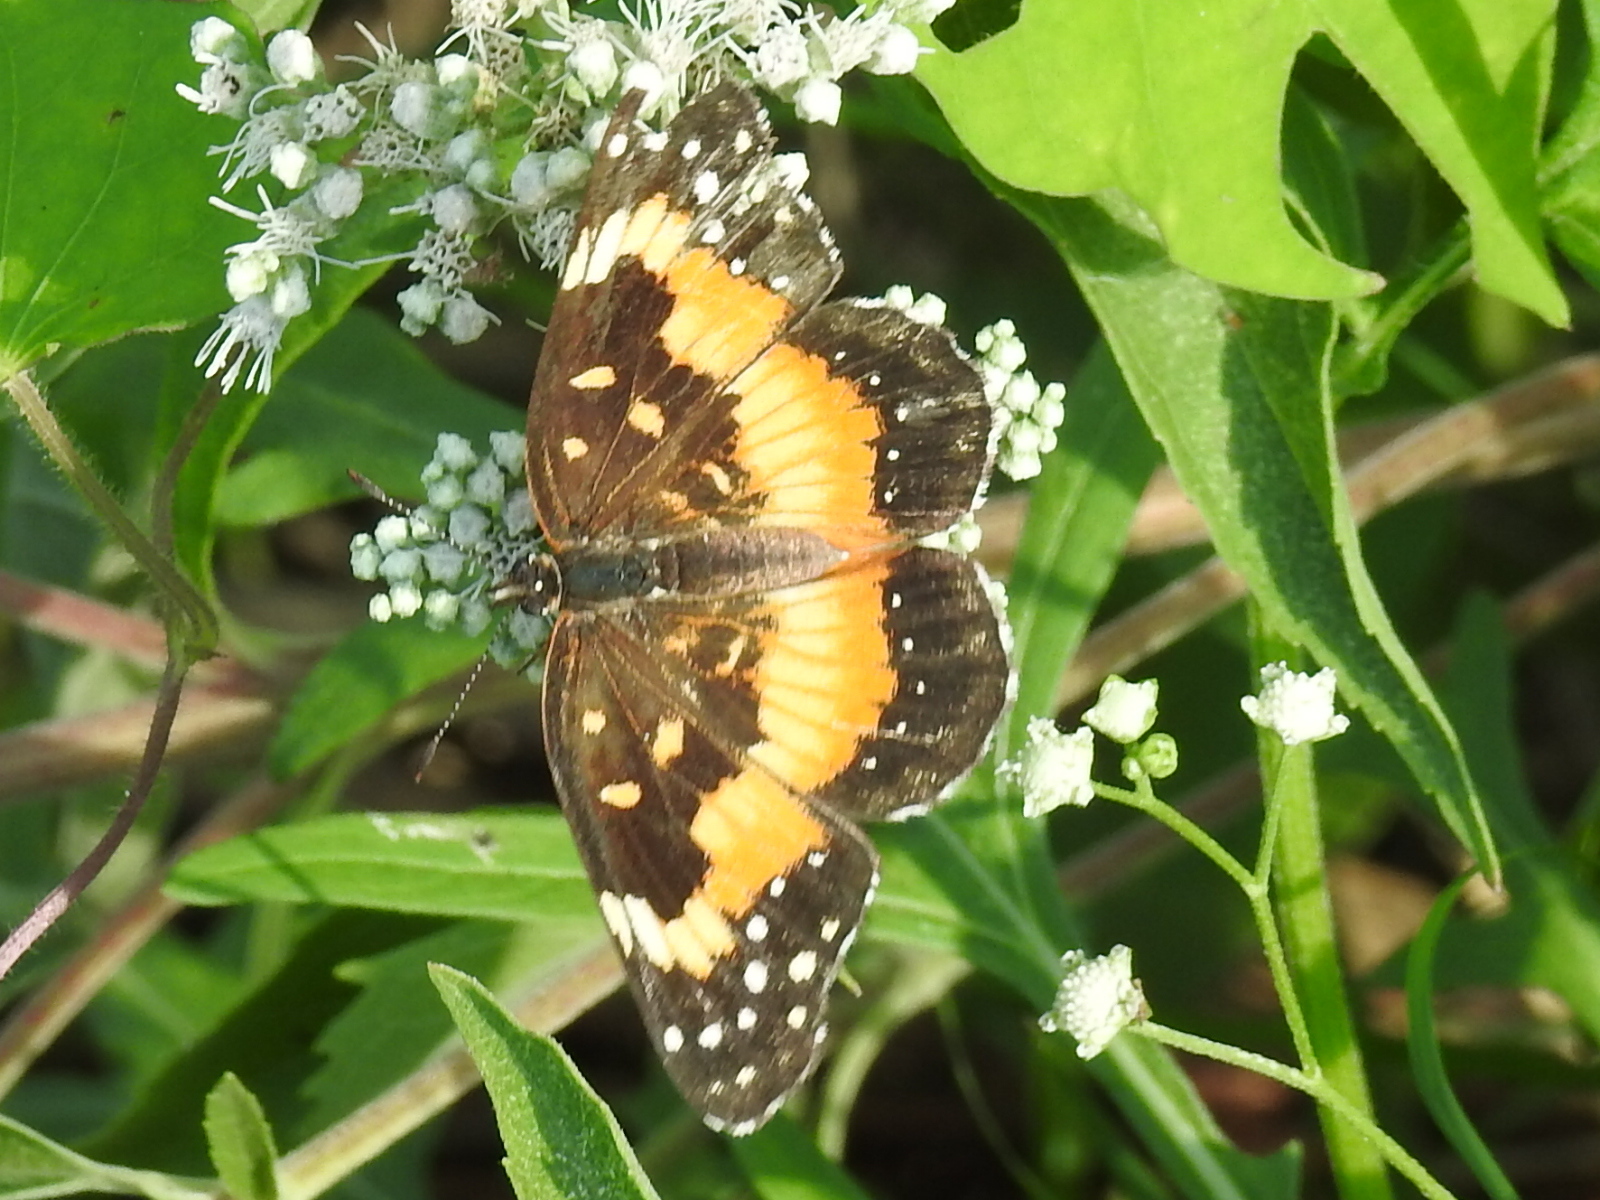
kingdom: Animalia
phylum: Arthropoda
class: Insecta
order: Lepidoptera
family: Nymphalidae
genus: Chlosyne
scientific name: Chlosyne lacinia
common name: Bordered patch
